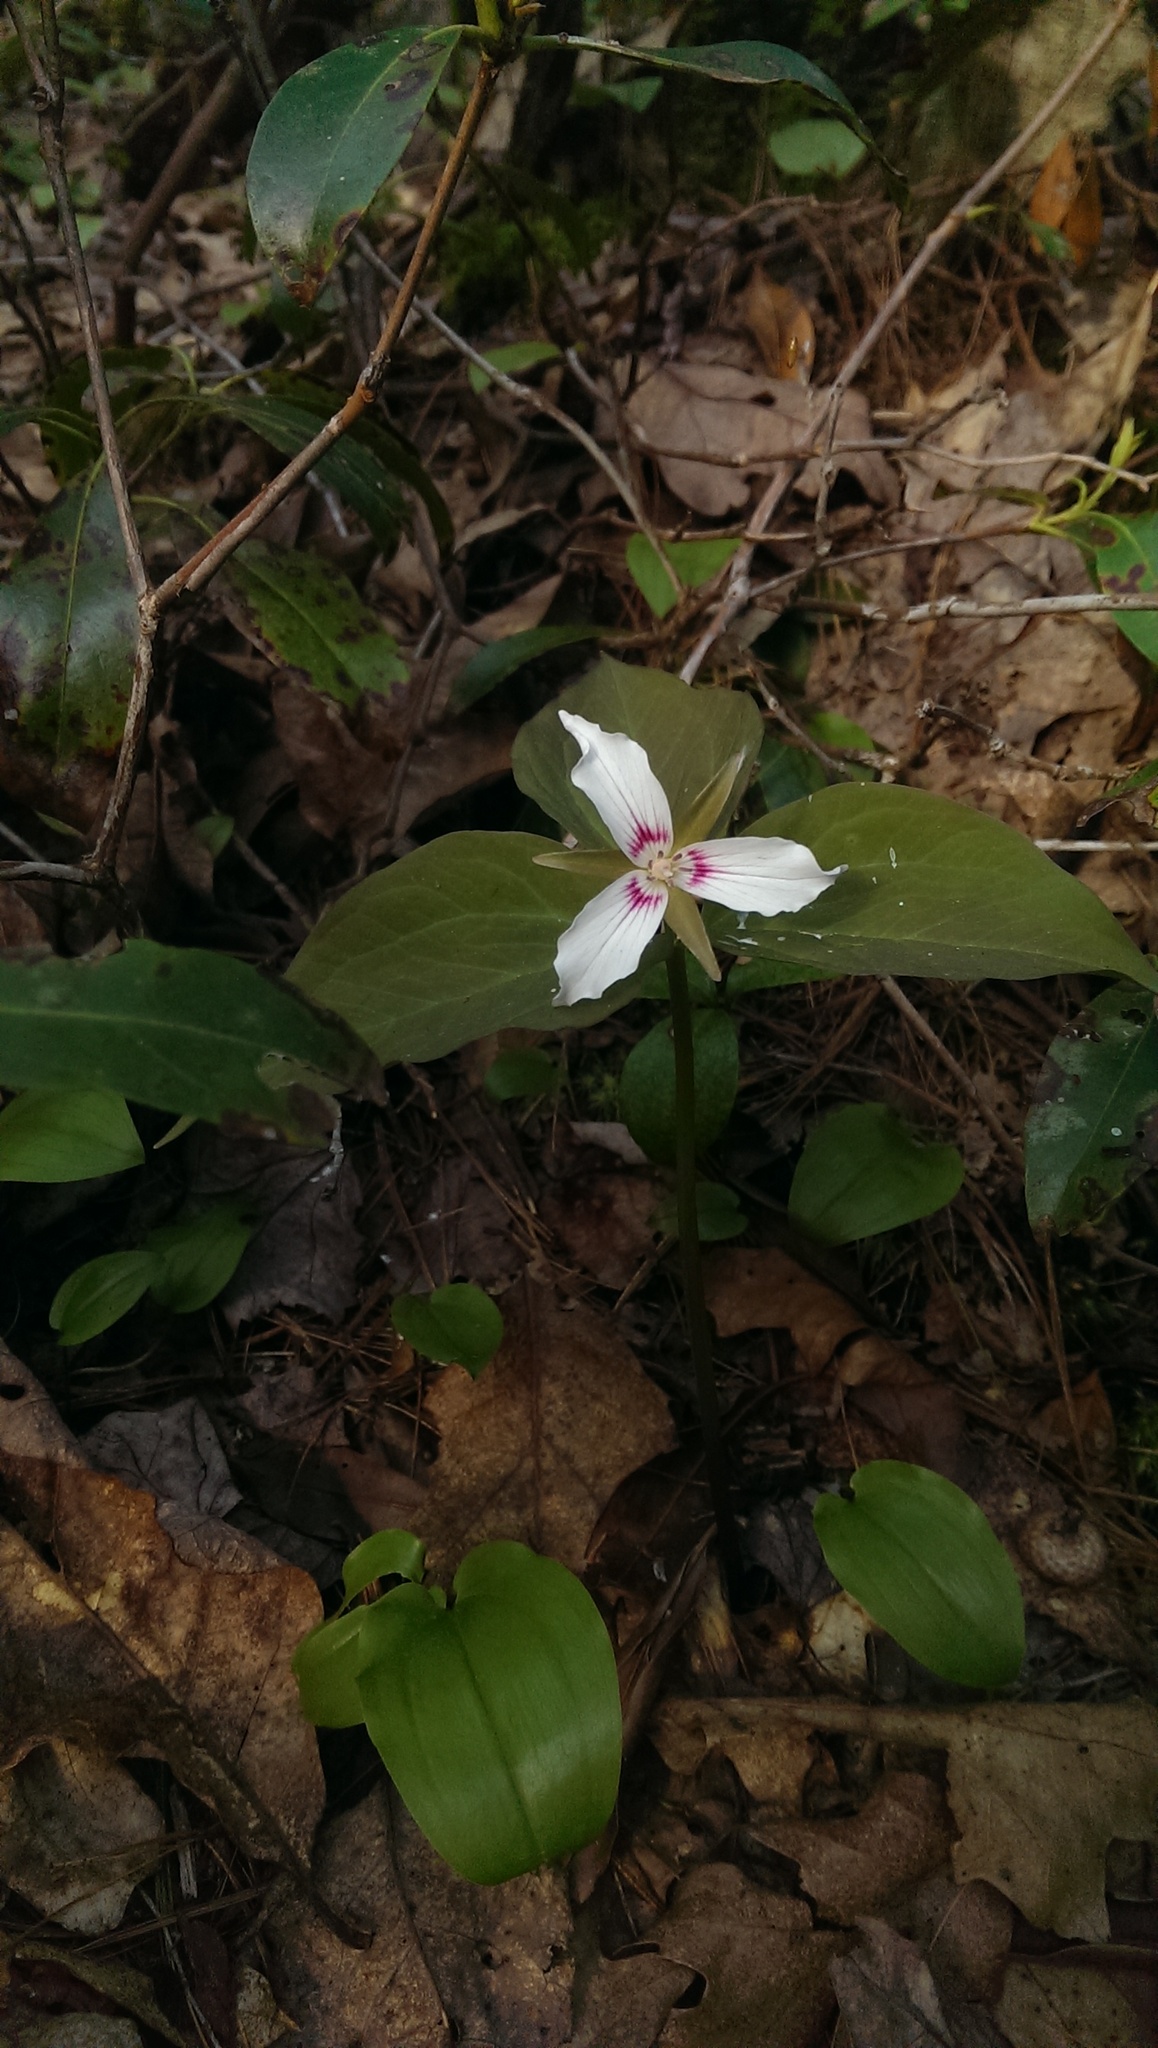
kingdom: Plantae
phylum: Tracheophyta
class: Liliopsida
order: Liliales
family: Melanthiaceae
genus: Trillium
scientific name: Trillium undulatum
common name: Paint trillium
